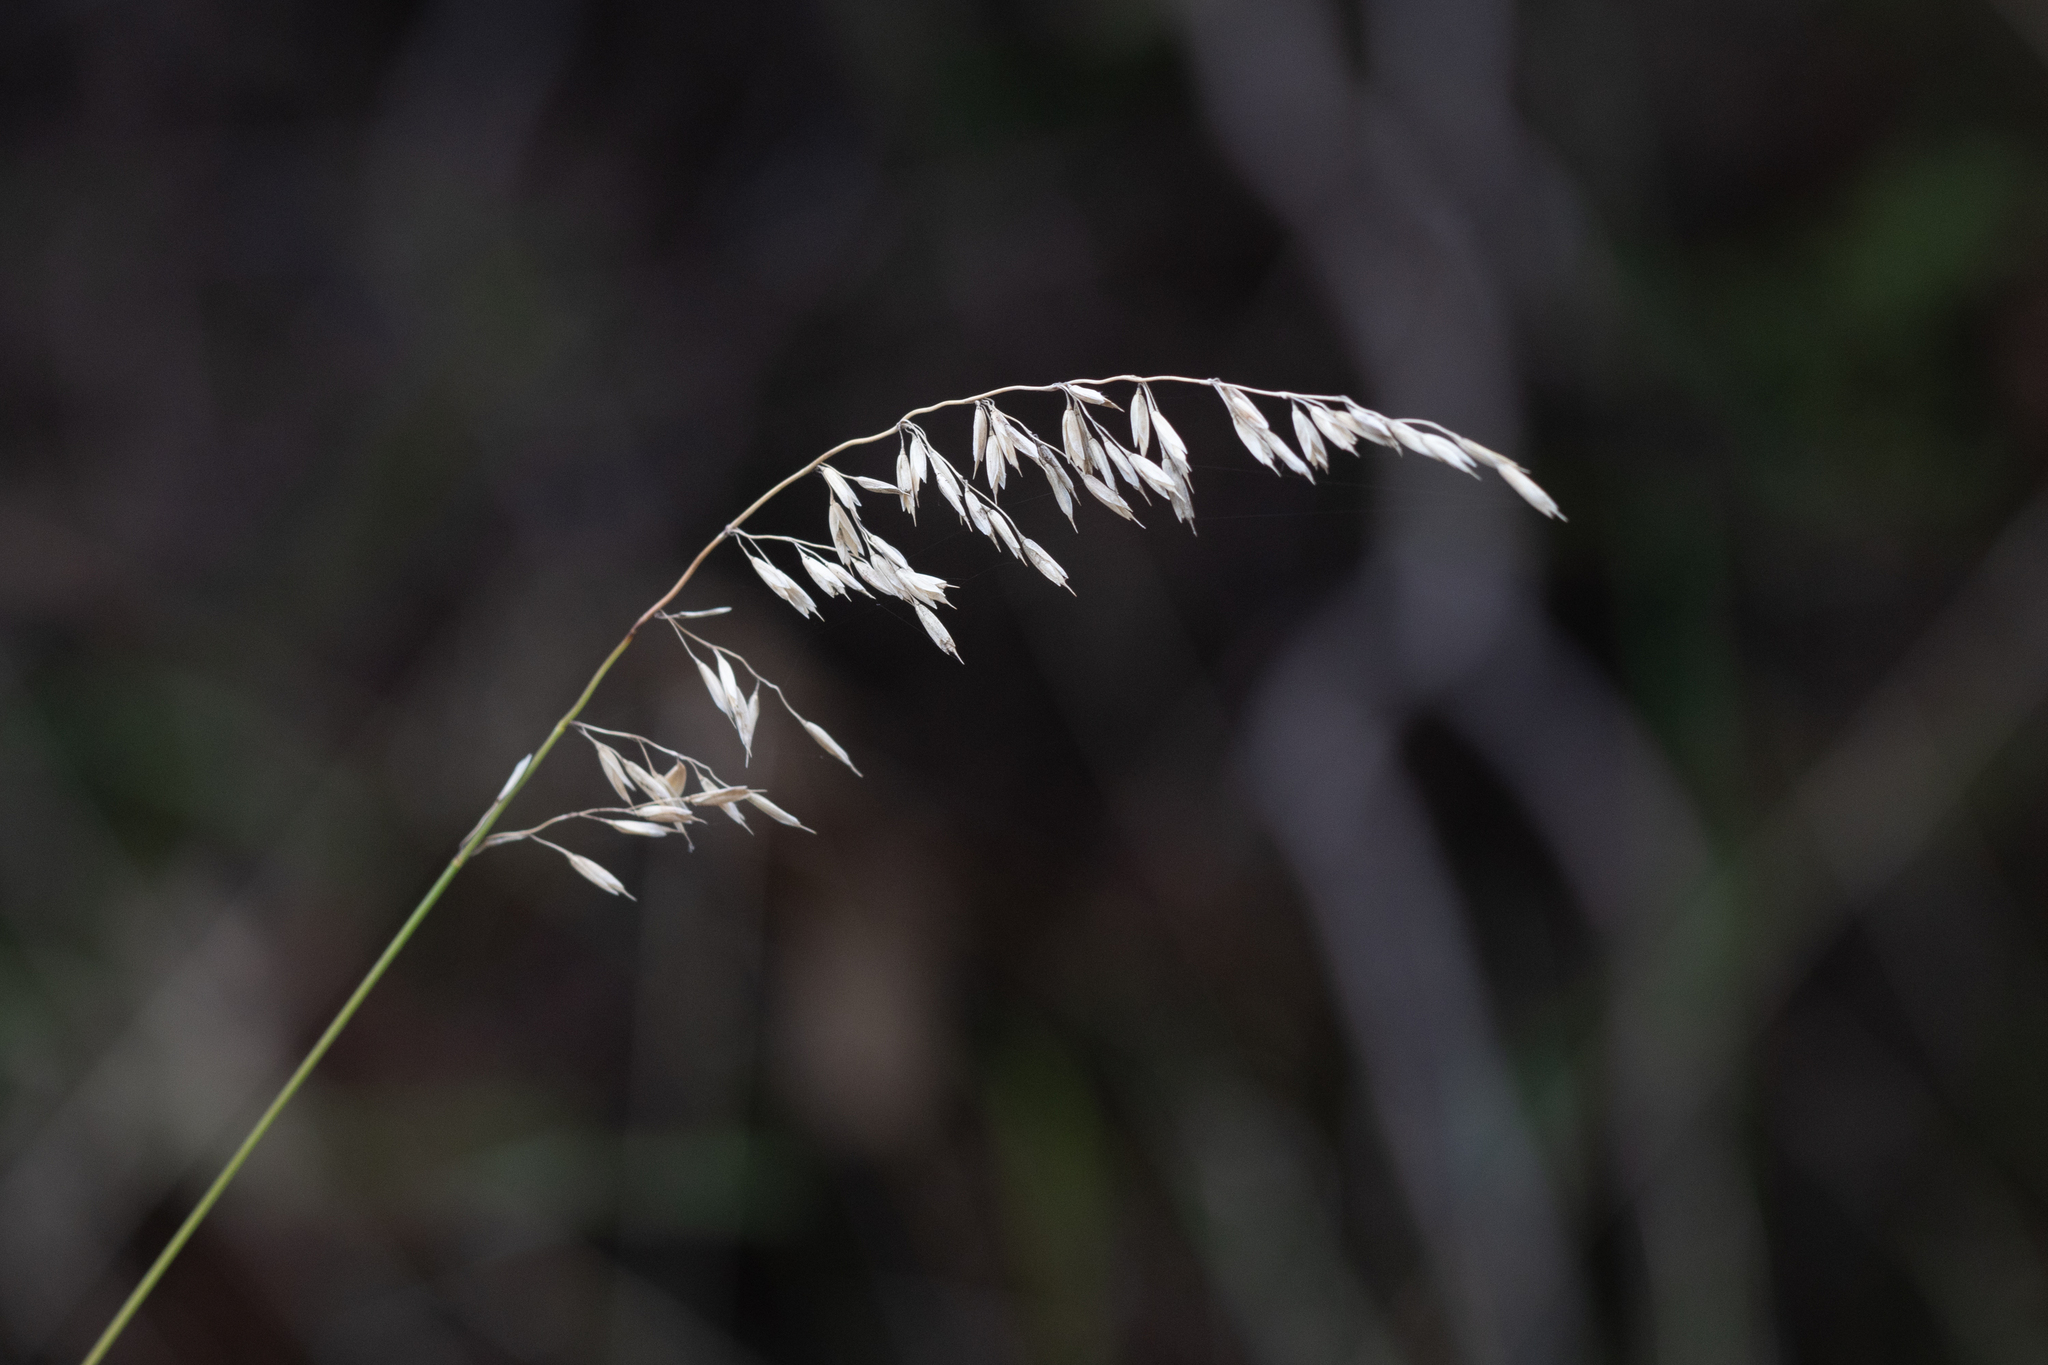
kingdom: Plantae
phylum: Tracheophyta
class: Liliopsida
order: Poales
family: Poaceae
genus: Ehrharta
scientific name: Ehrharta calycina
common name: Perennial veldtgrass
